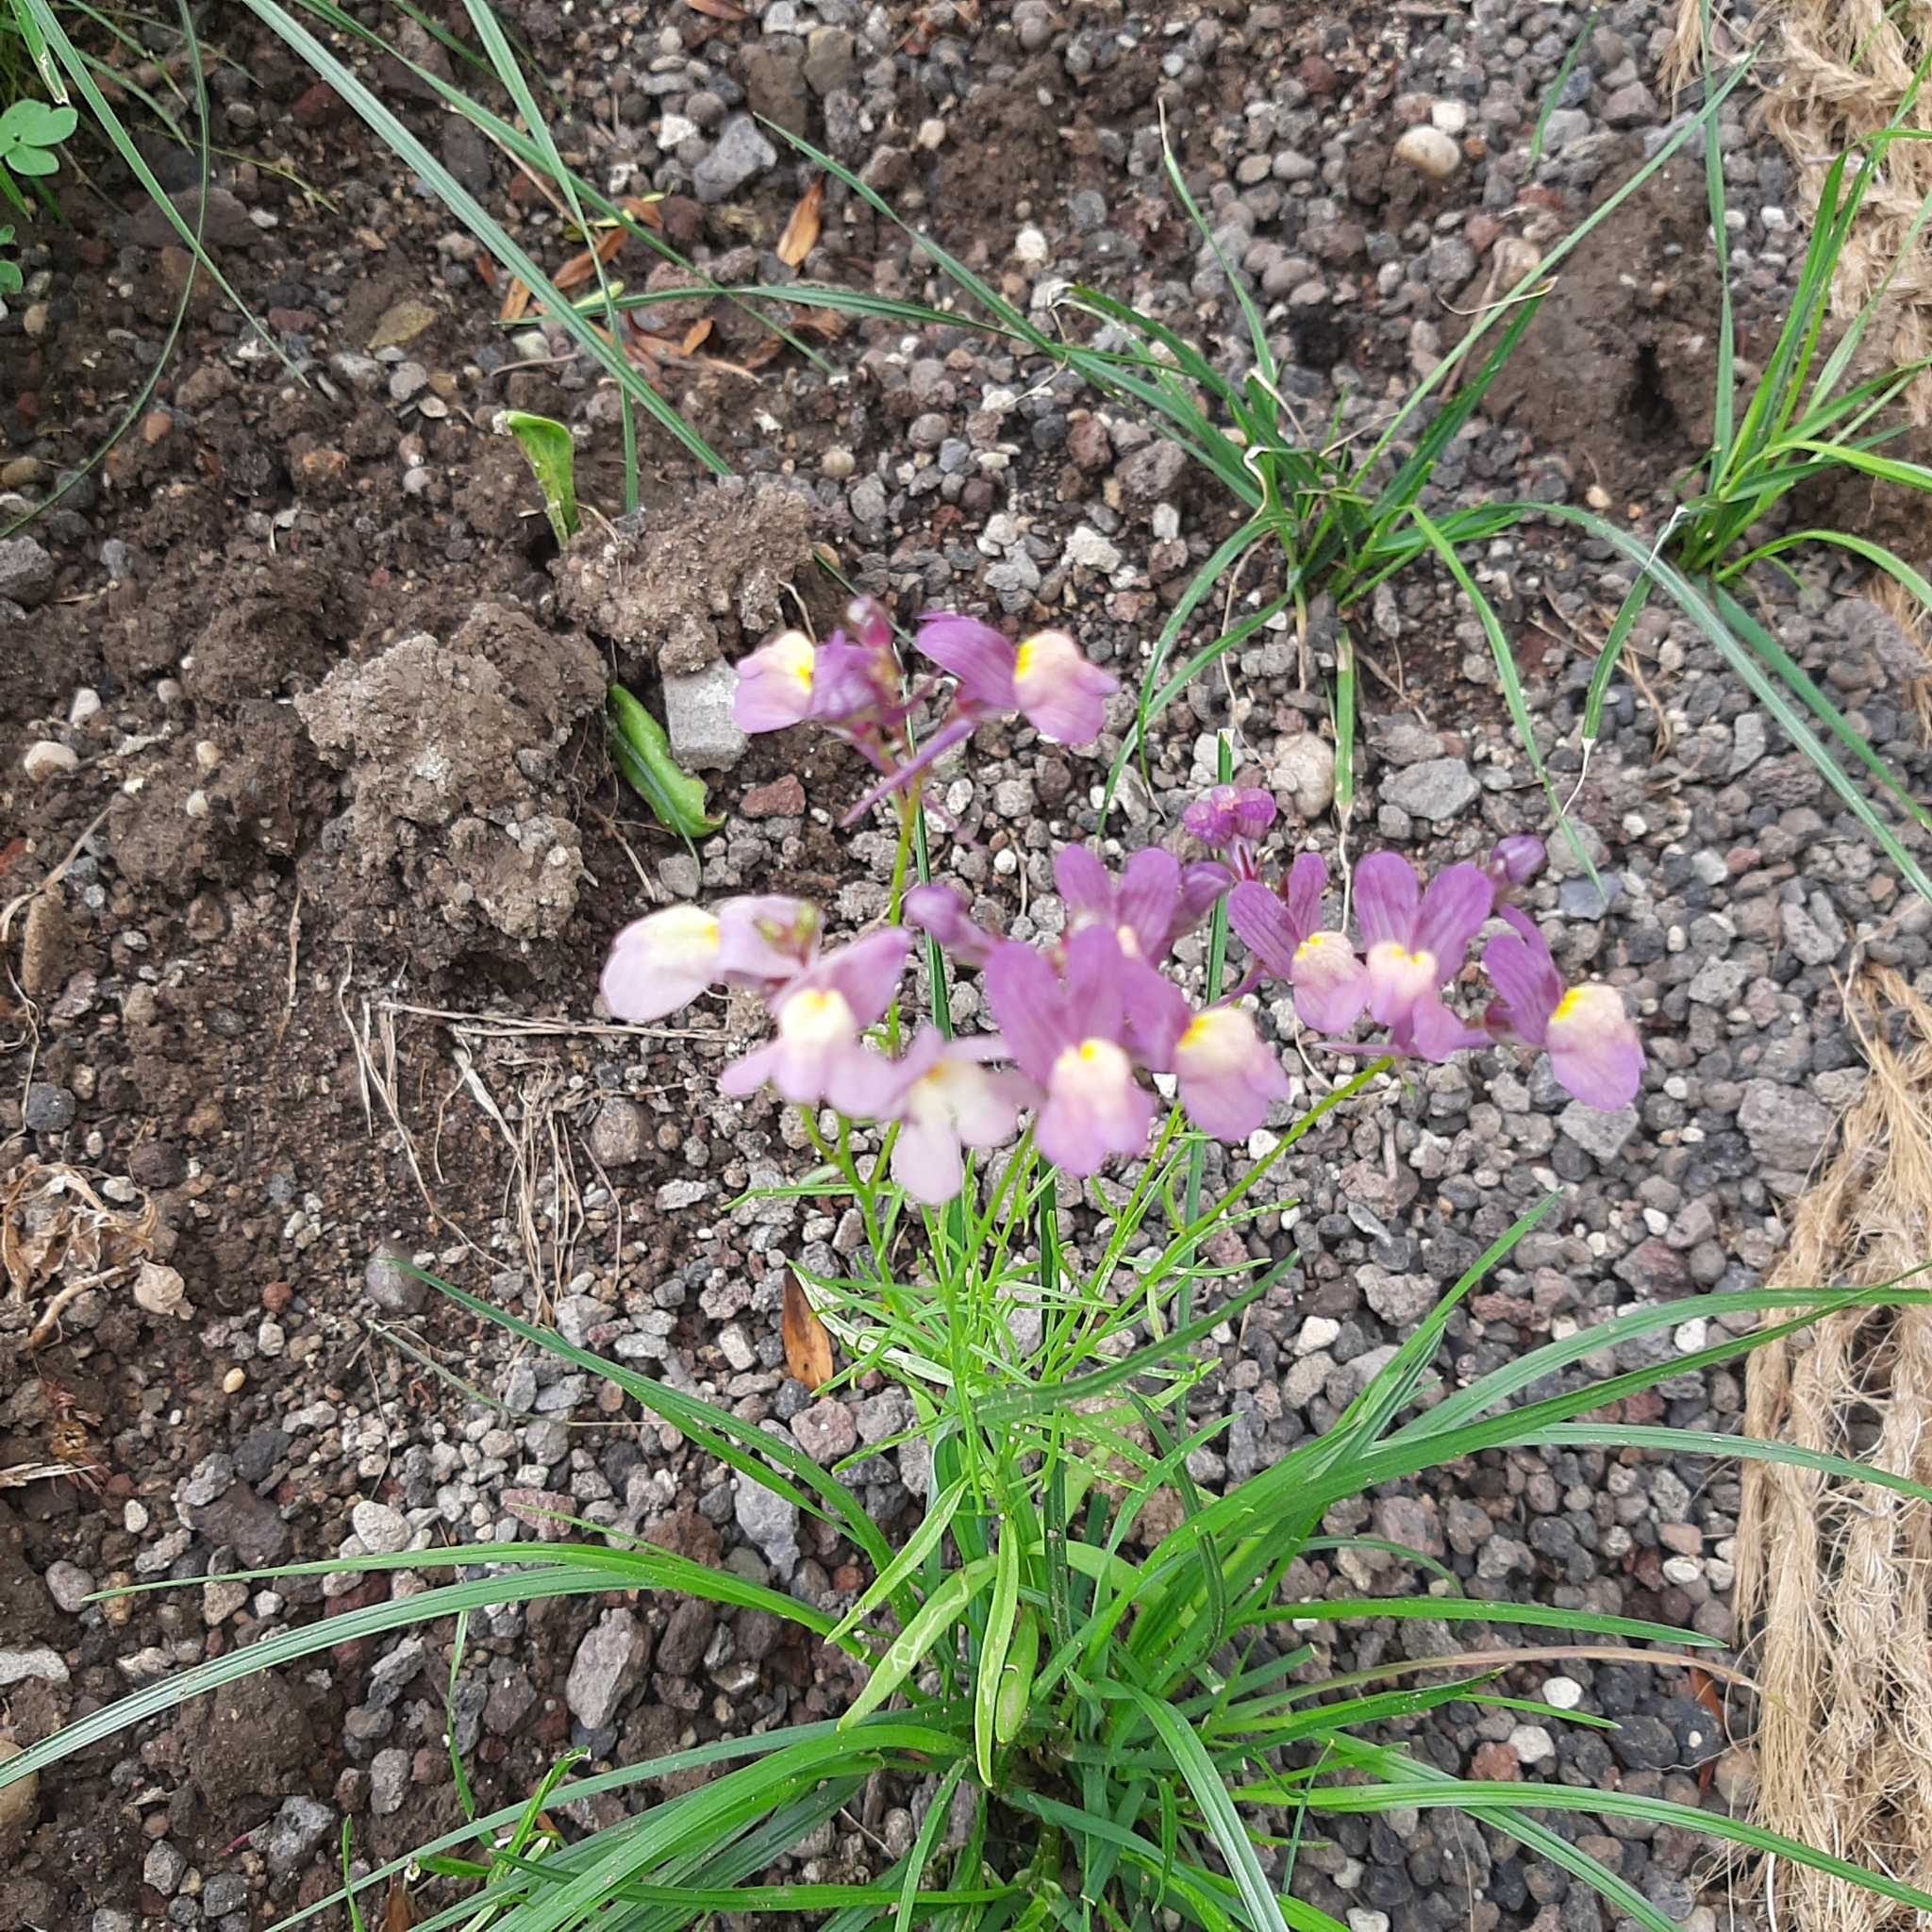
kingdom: Plantae
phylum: Tracheophyta
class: Magnoliopsida
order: Lamiales
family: Plantaginaceae
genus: Linaria
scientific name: Linaria maroccana
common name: Moroccan toadflax
